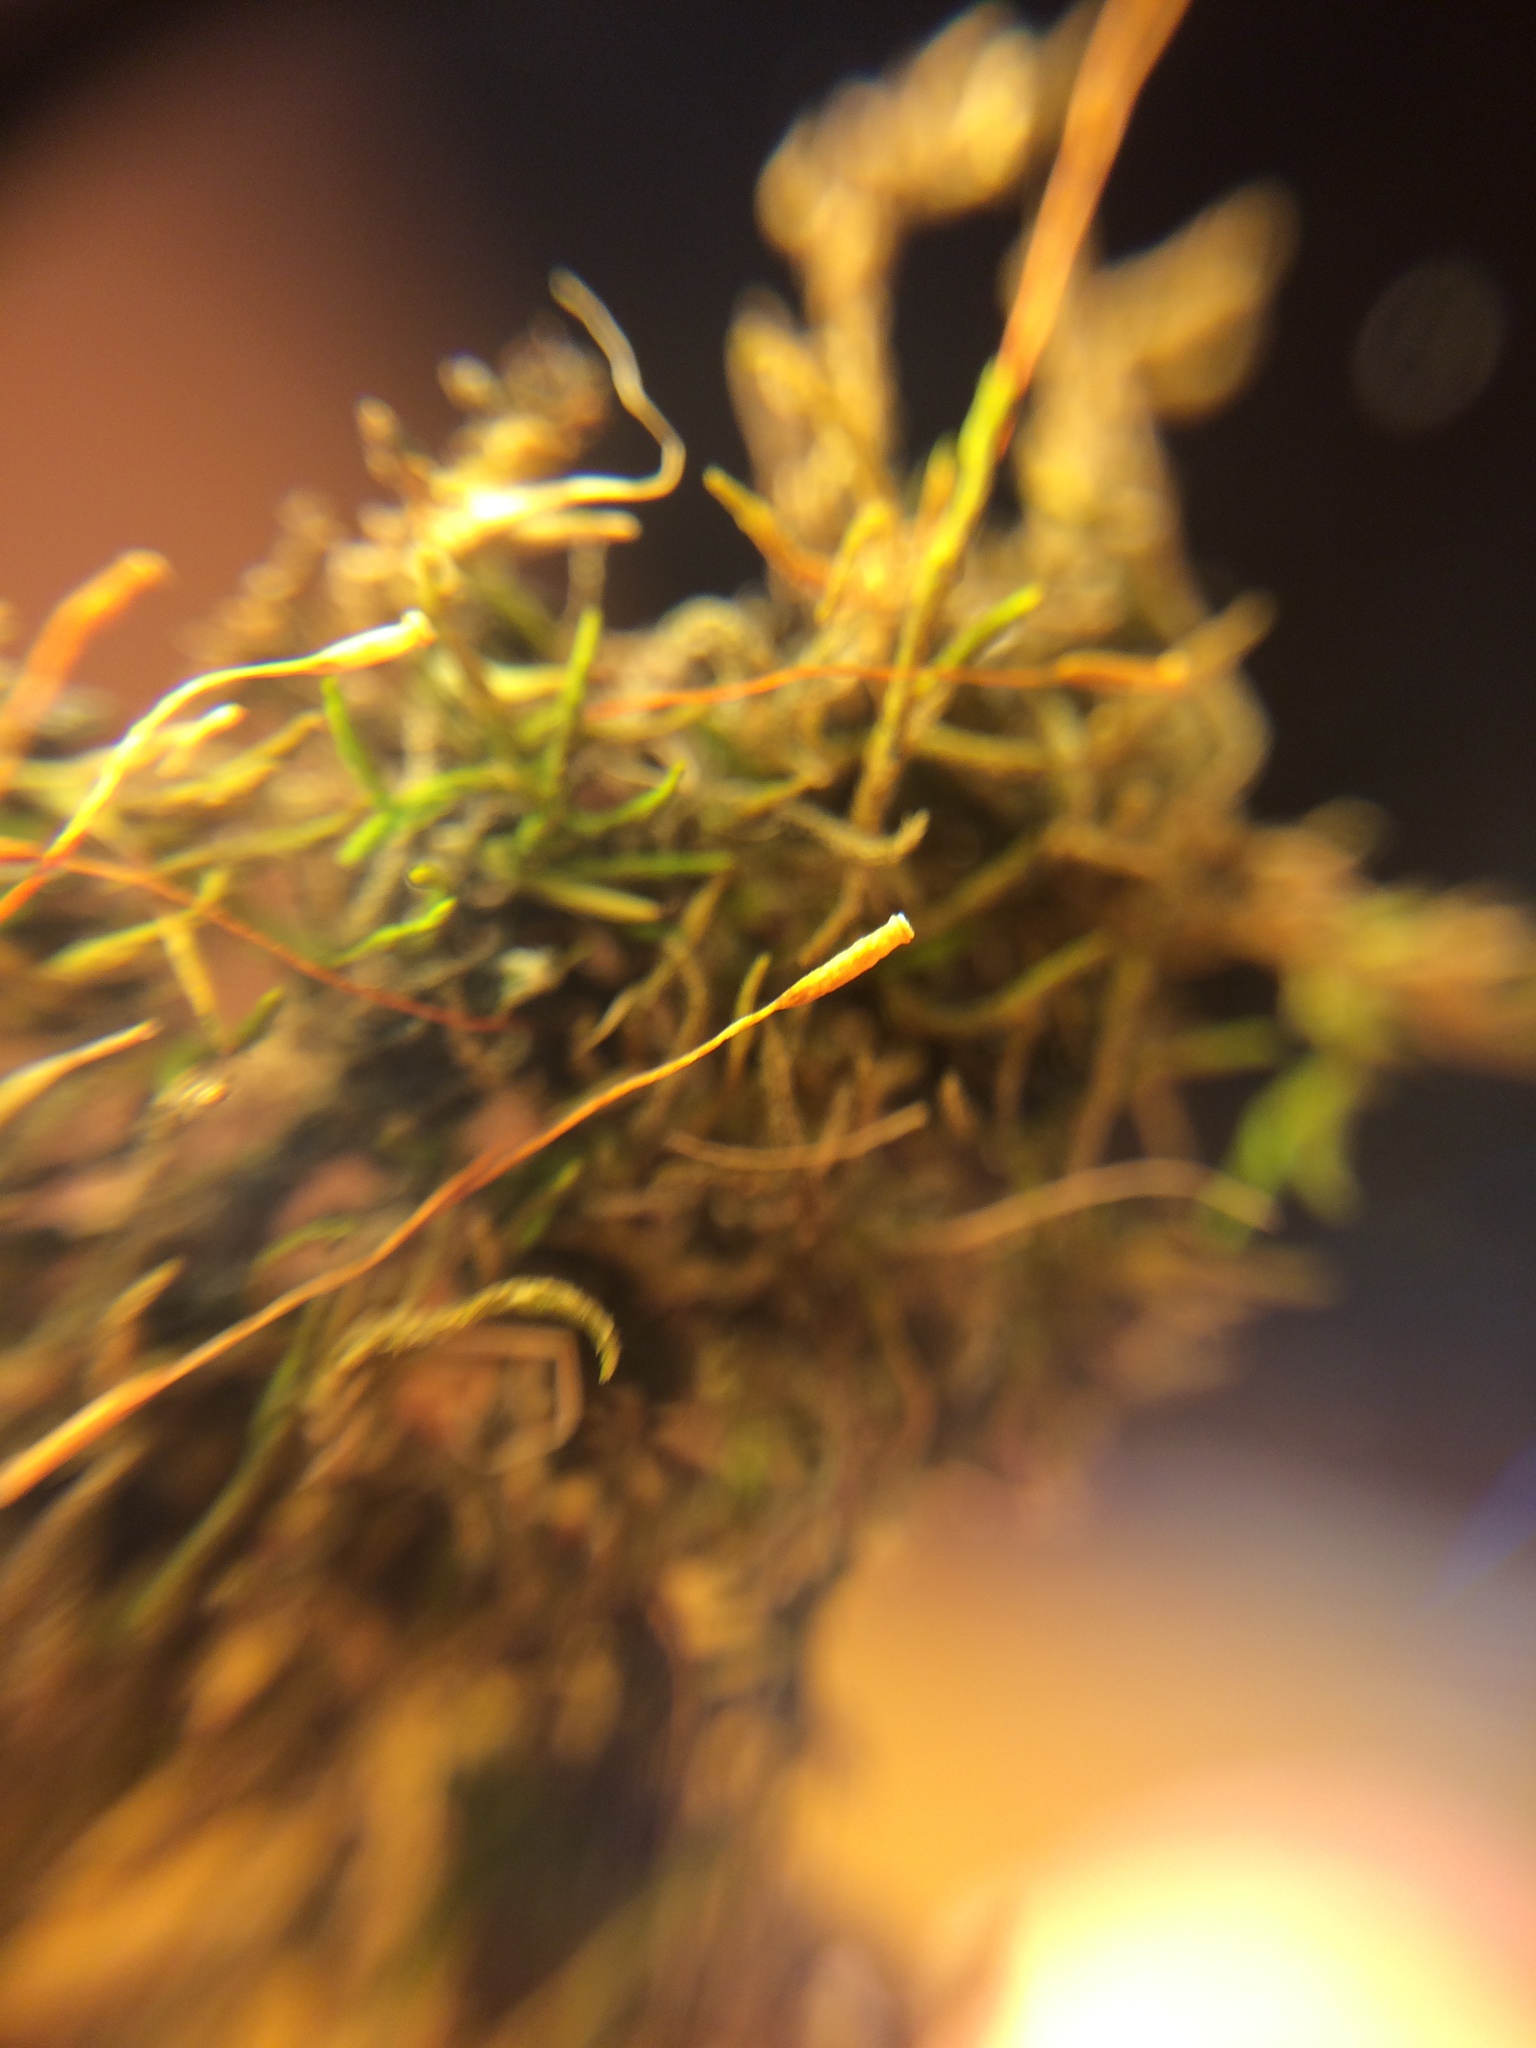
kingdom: Plantae
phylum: Bryophyta
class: Bryopsida
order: Hypnales
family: Leskeaceae
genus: Leskea
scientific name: Leskea polycarpa
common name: Many-fruited leske's moss
